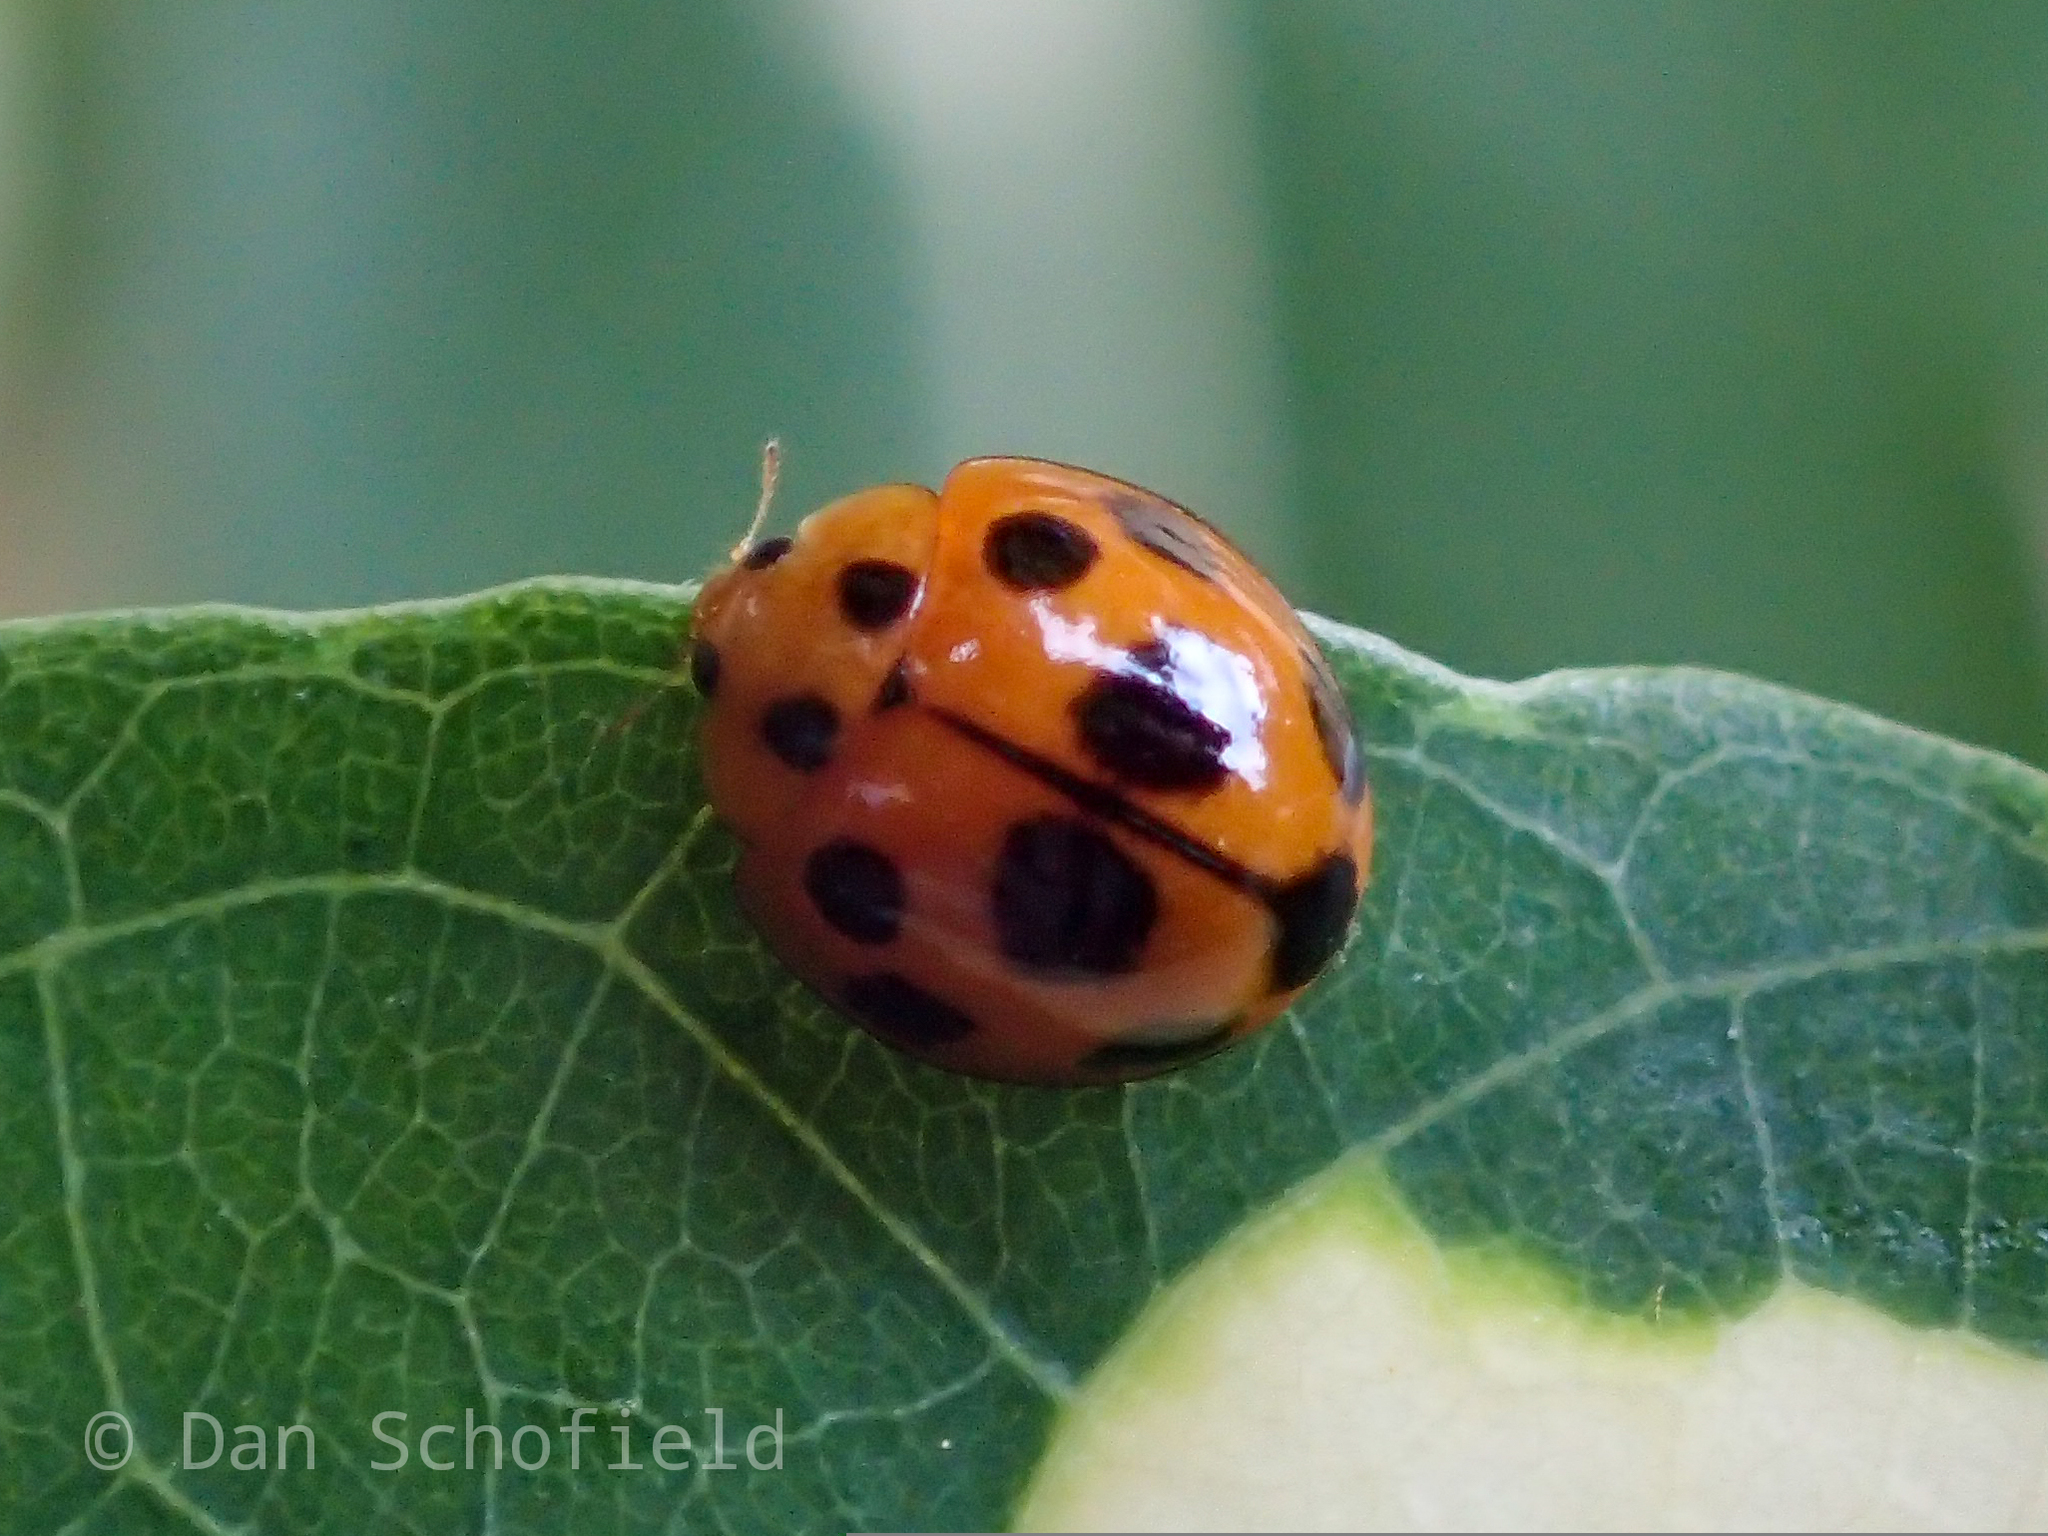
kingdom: Animalia
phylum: Arthropoda
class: Insecta
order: Coleoptera
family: Coccinellidae
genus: Coelophora
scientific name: Coelophora inaequalis
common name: Common australian lady beetle
